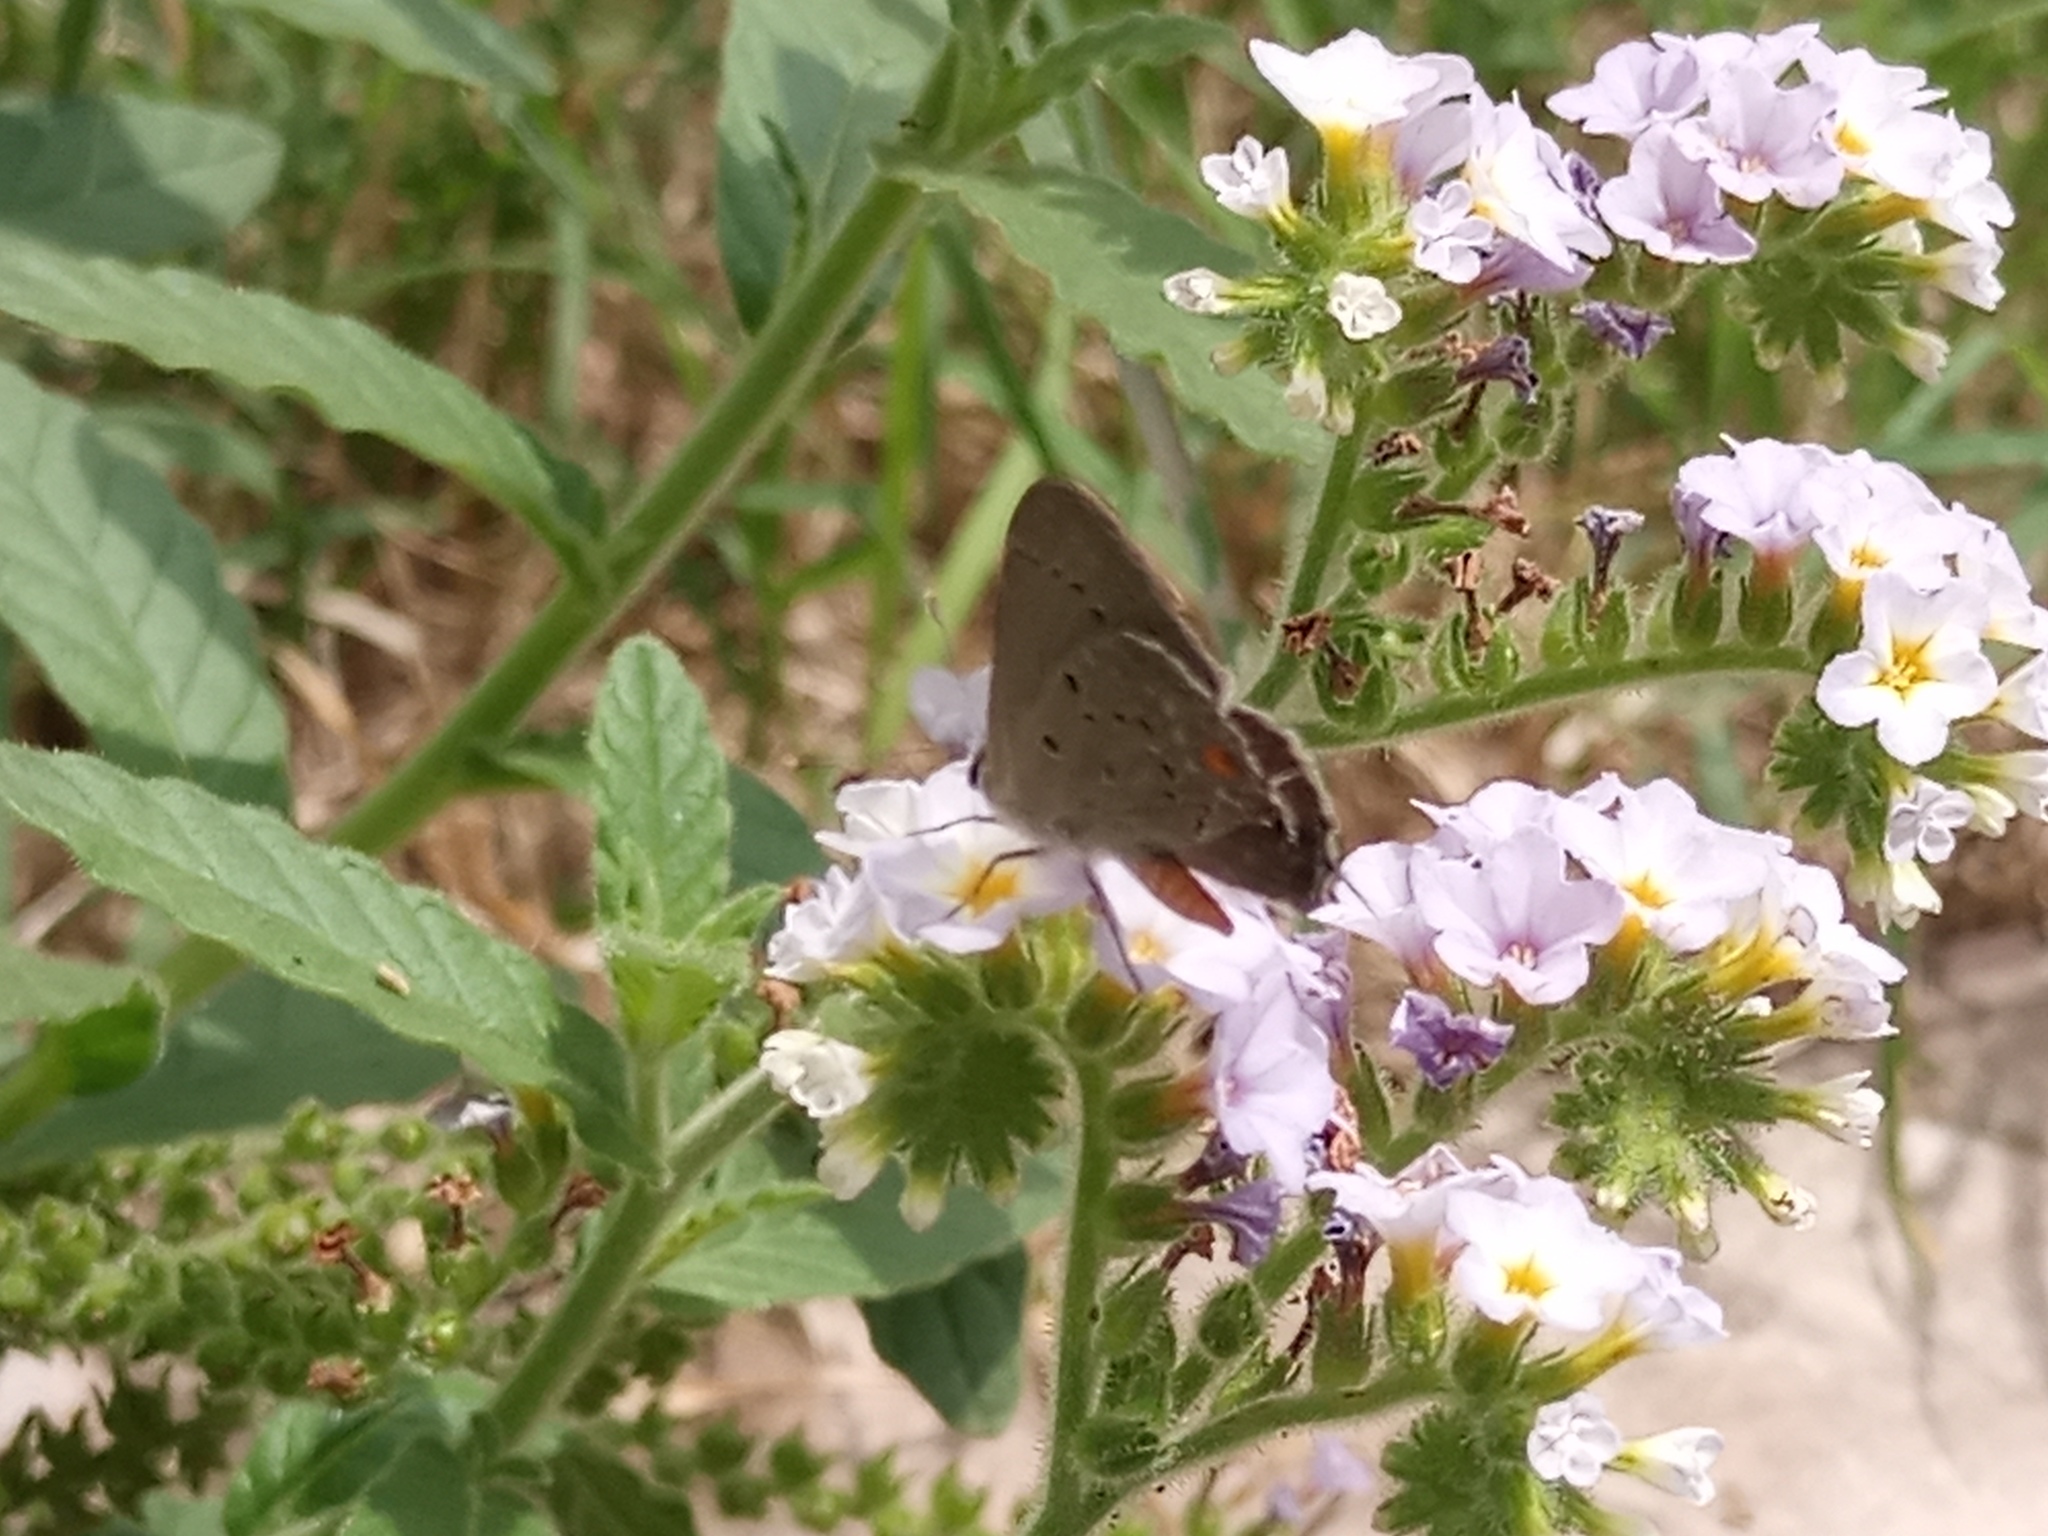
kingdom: Animalia
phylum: Arthropoda
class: Insecta
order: Lepidoptera
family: Lycaenidae
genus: Strymon
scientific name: Strymon eurytulus
